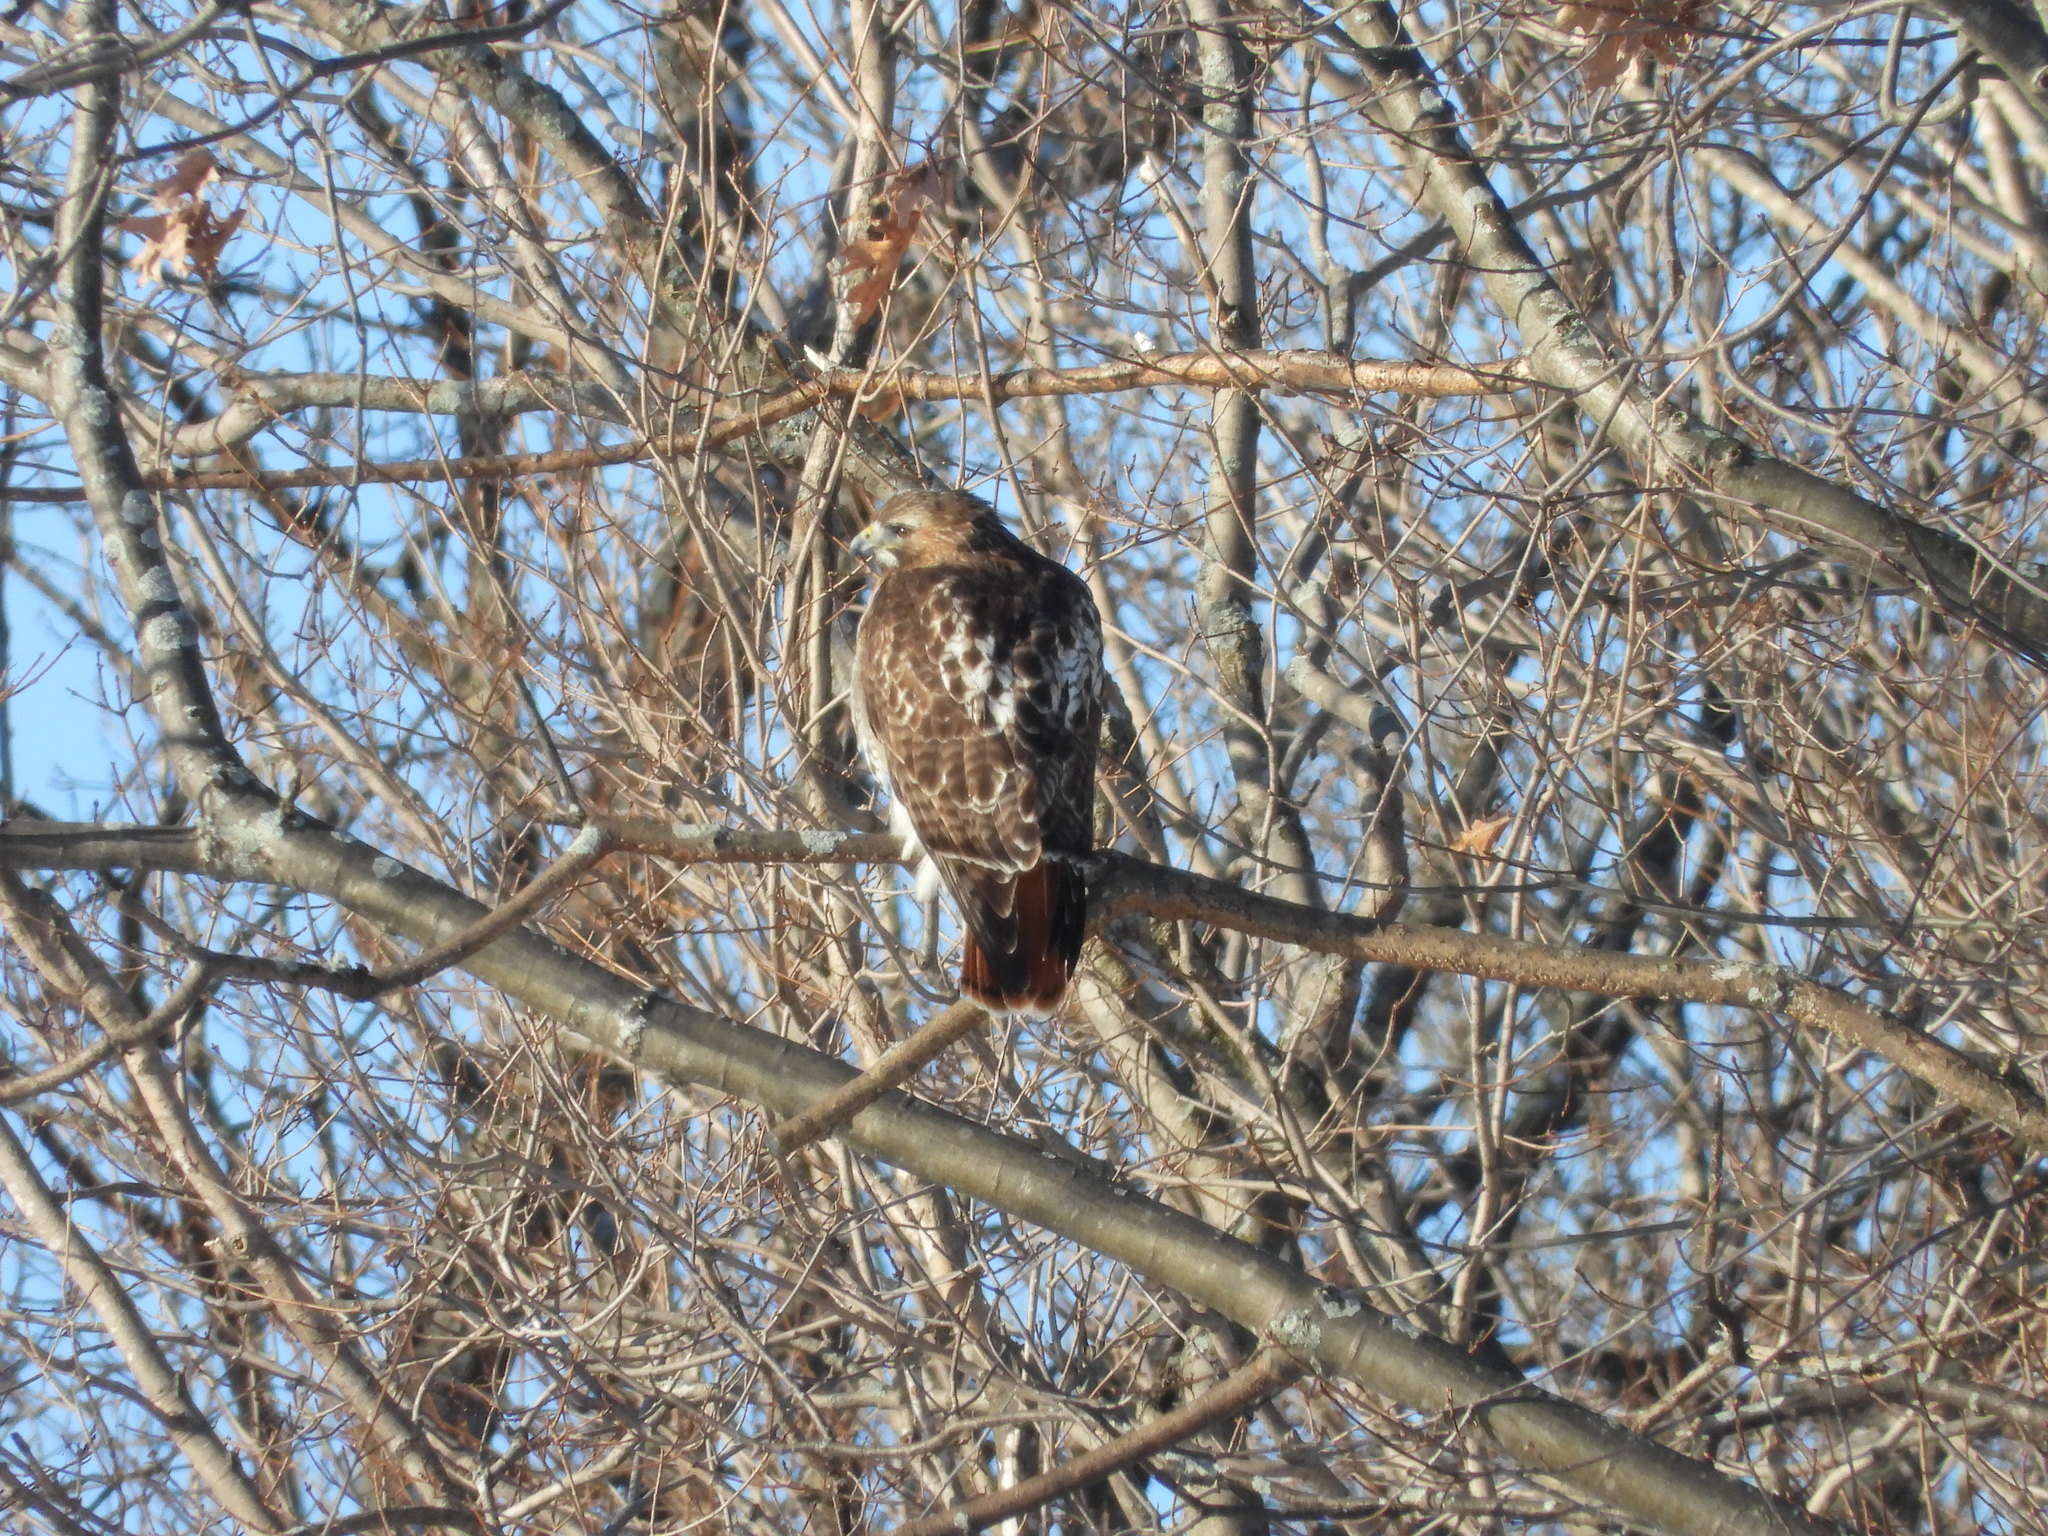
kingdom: Animalia
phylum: Chordata
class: Aves
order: Accipitriformes
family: Accipitridae
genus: Buteo
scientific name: Buteo jamaicensis
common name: Red-tailed hawk
